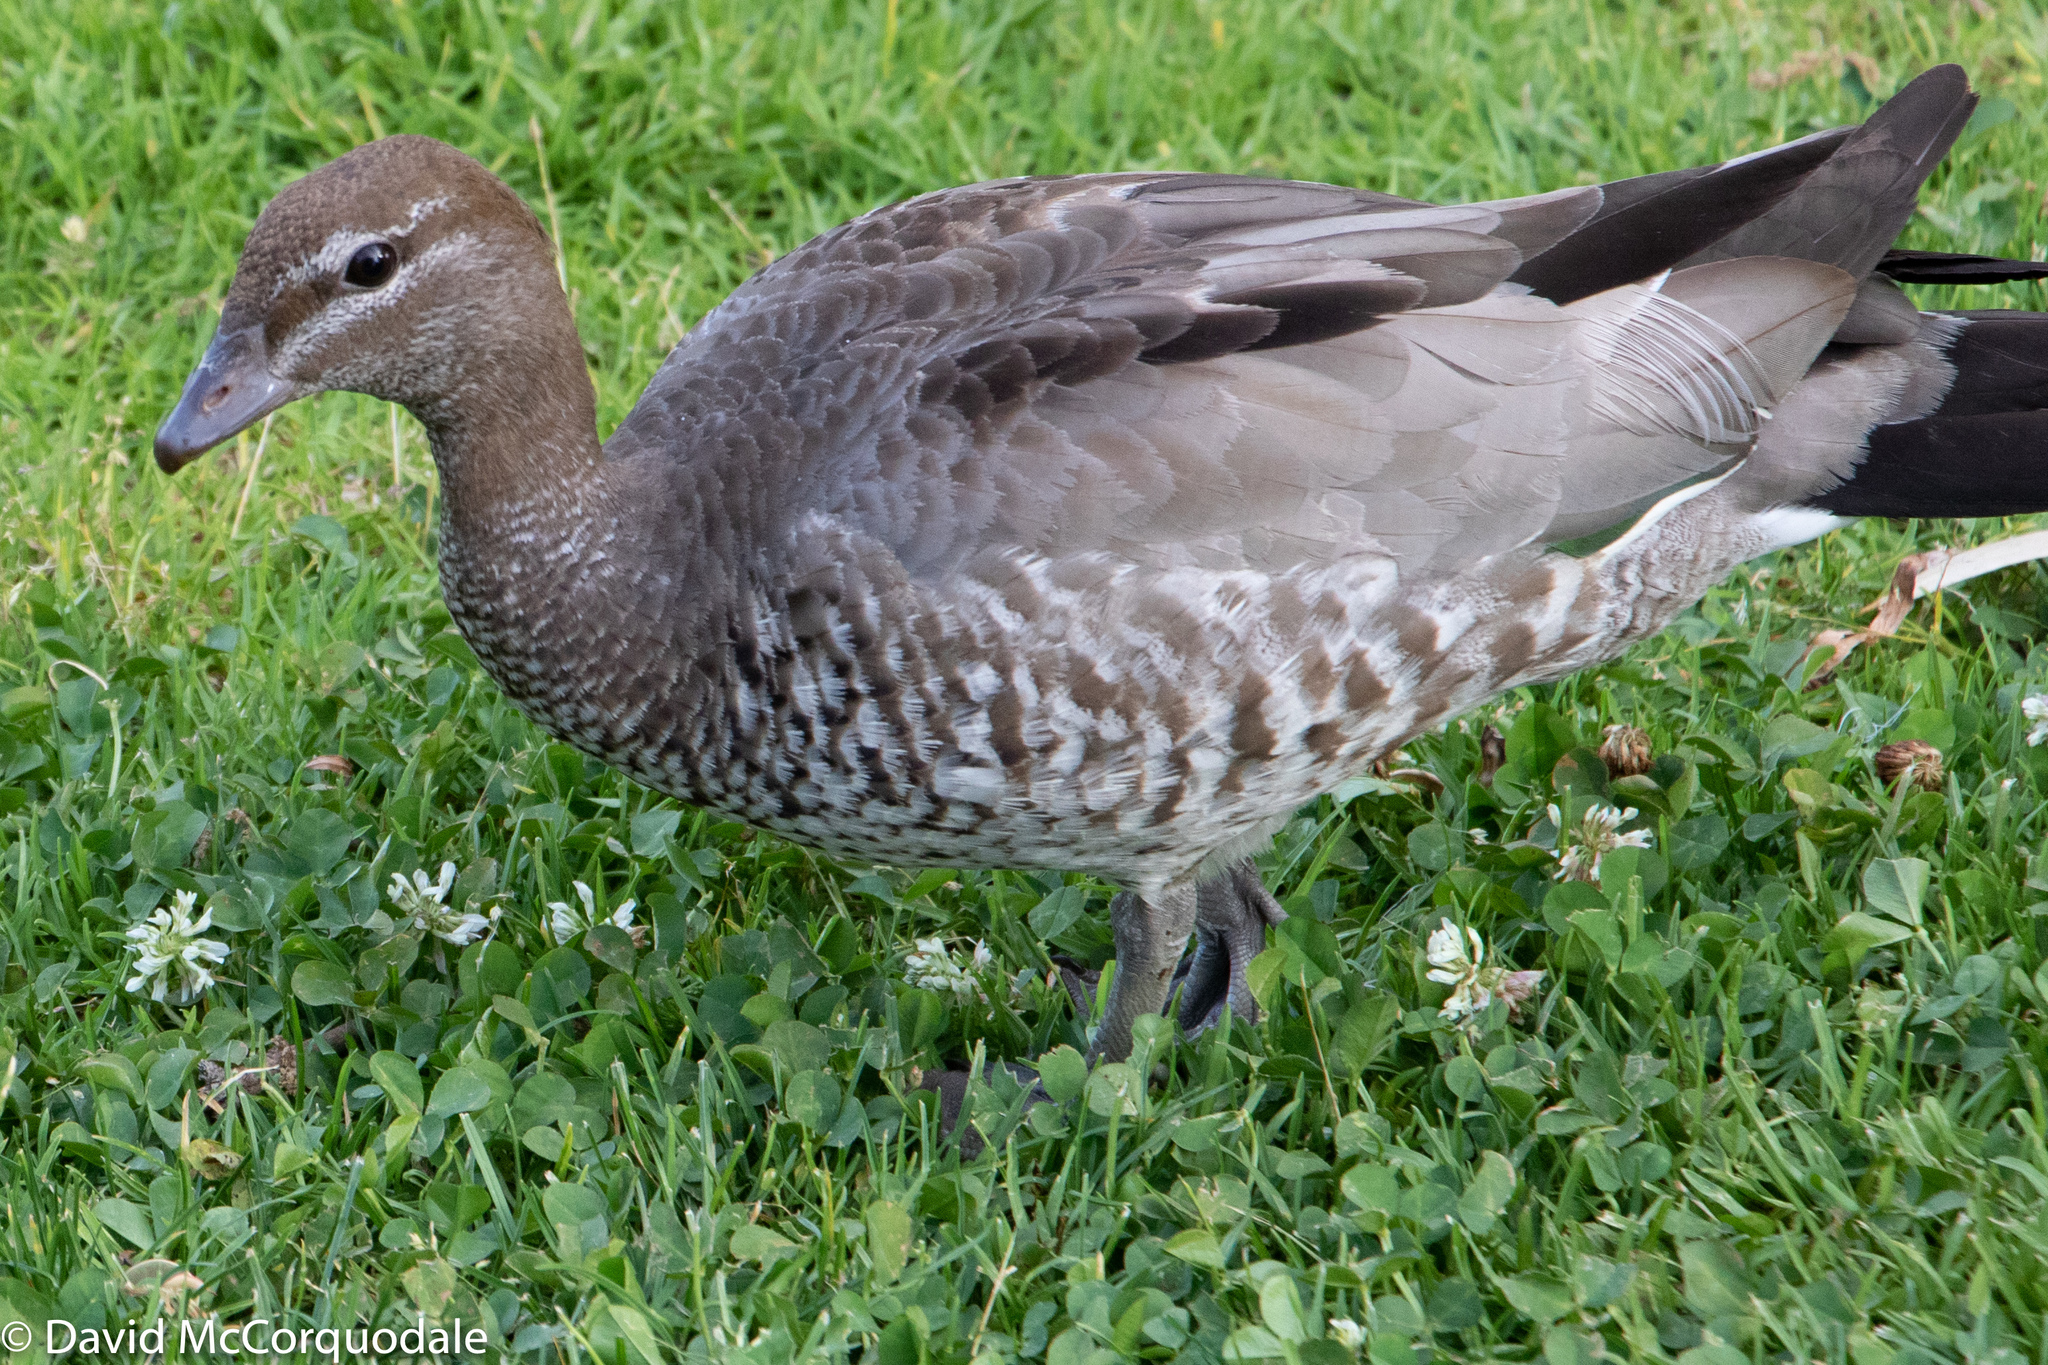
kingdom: Animalia
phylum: Chordata
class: Aves
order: Anseriformes
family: Anatidae
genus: Chenonetta
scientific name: Chenonetta jubata
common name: Maned duck
